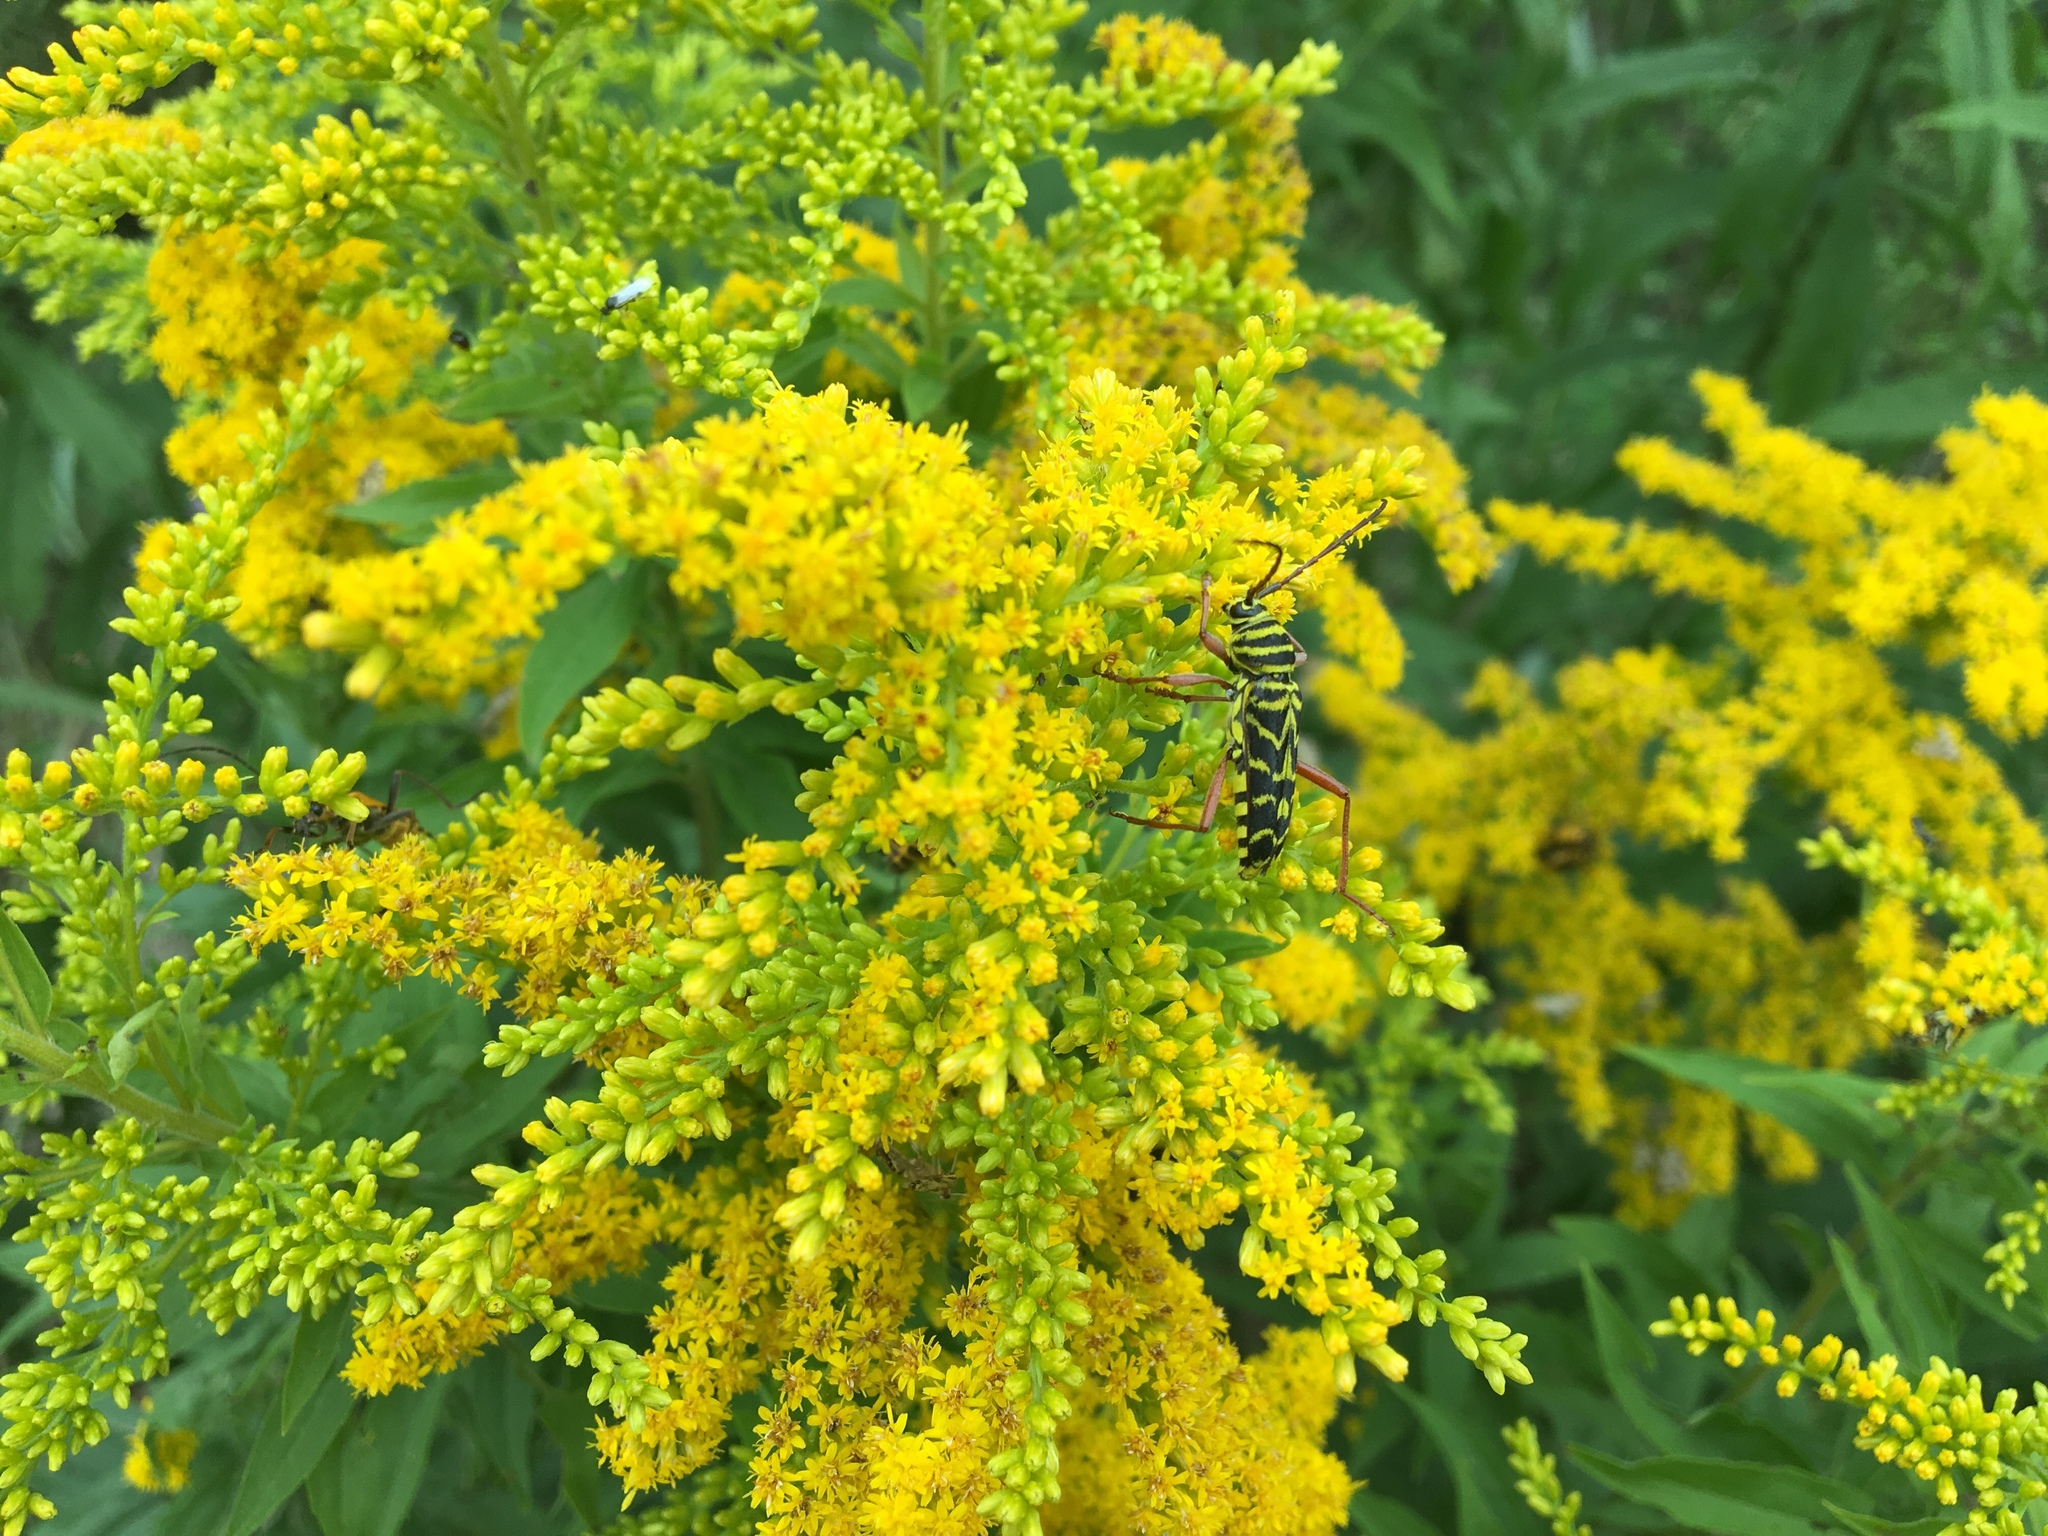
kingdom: Animalia
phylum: Arthropoda
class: Insecta
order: Coleoptera
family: Cerambycidae
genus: Megacyllene
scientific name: Megacyllene robiniae
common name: Locust borer
